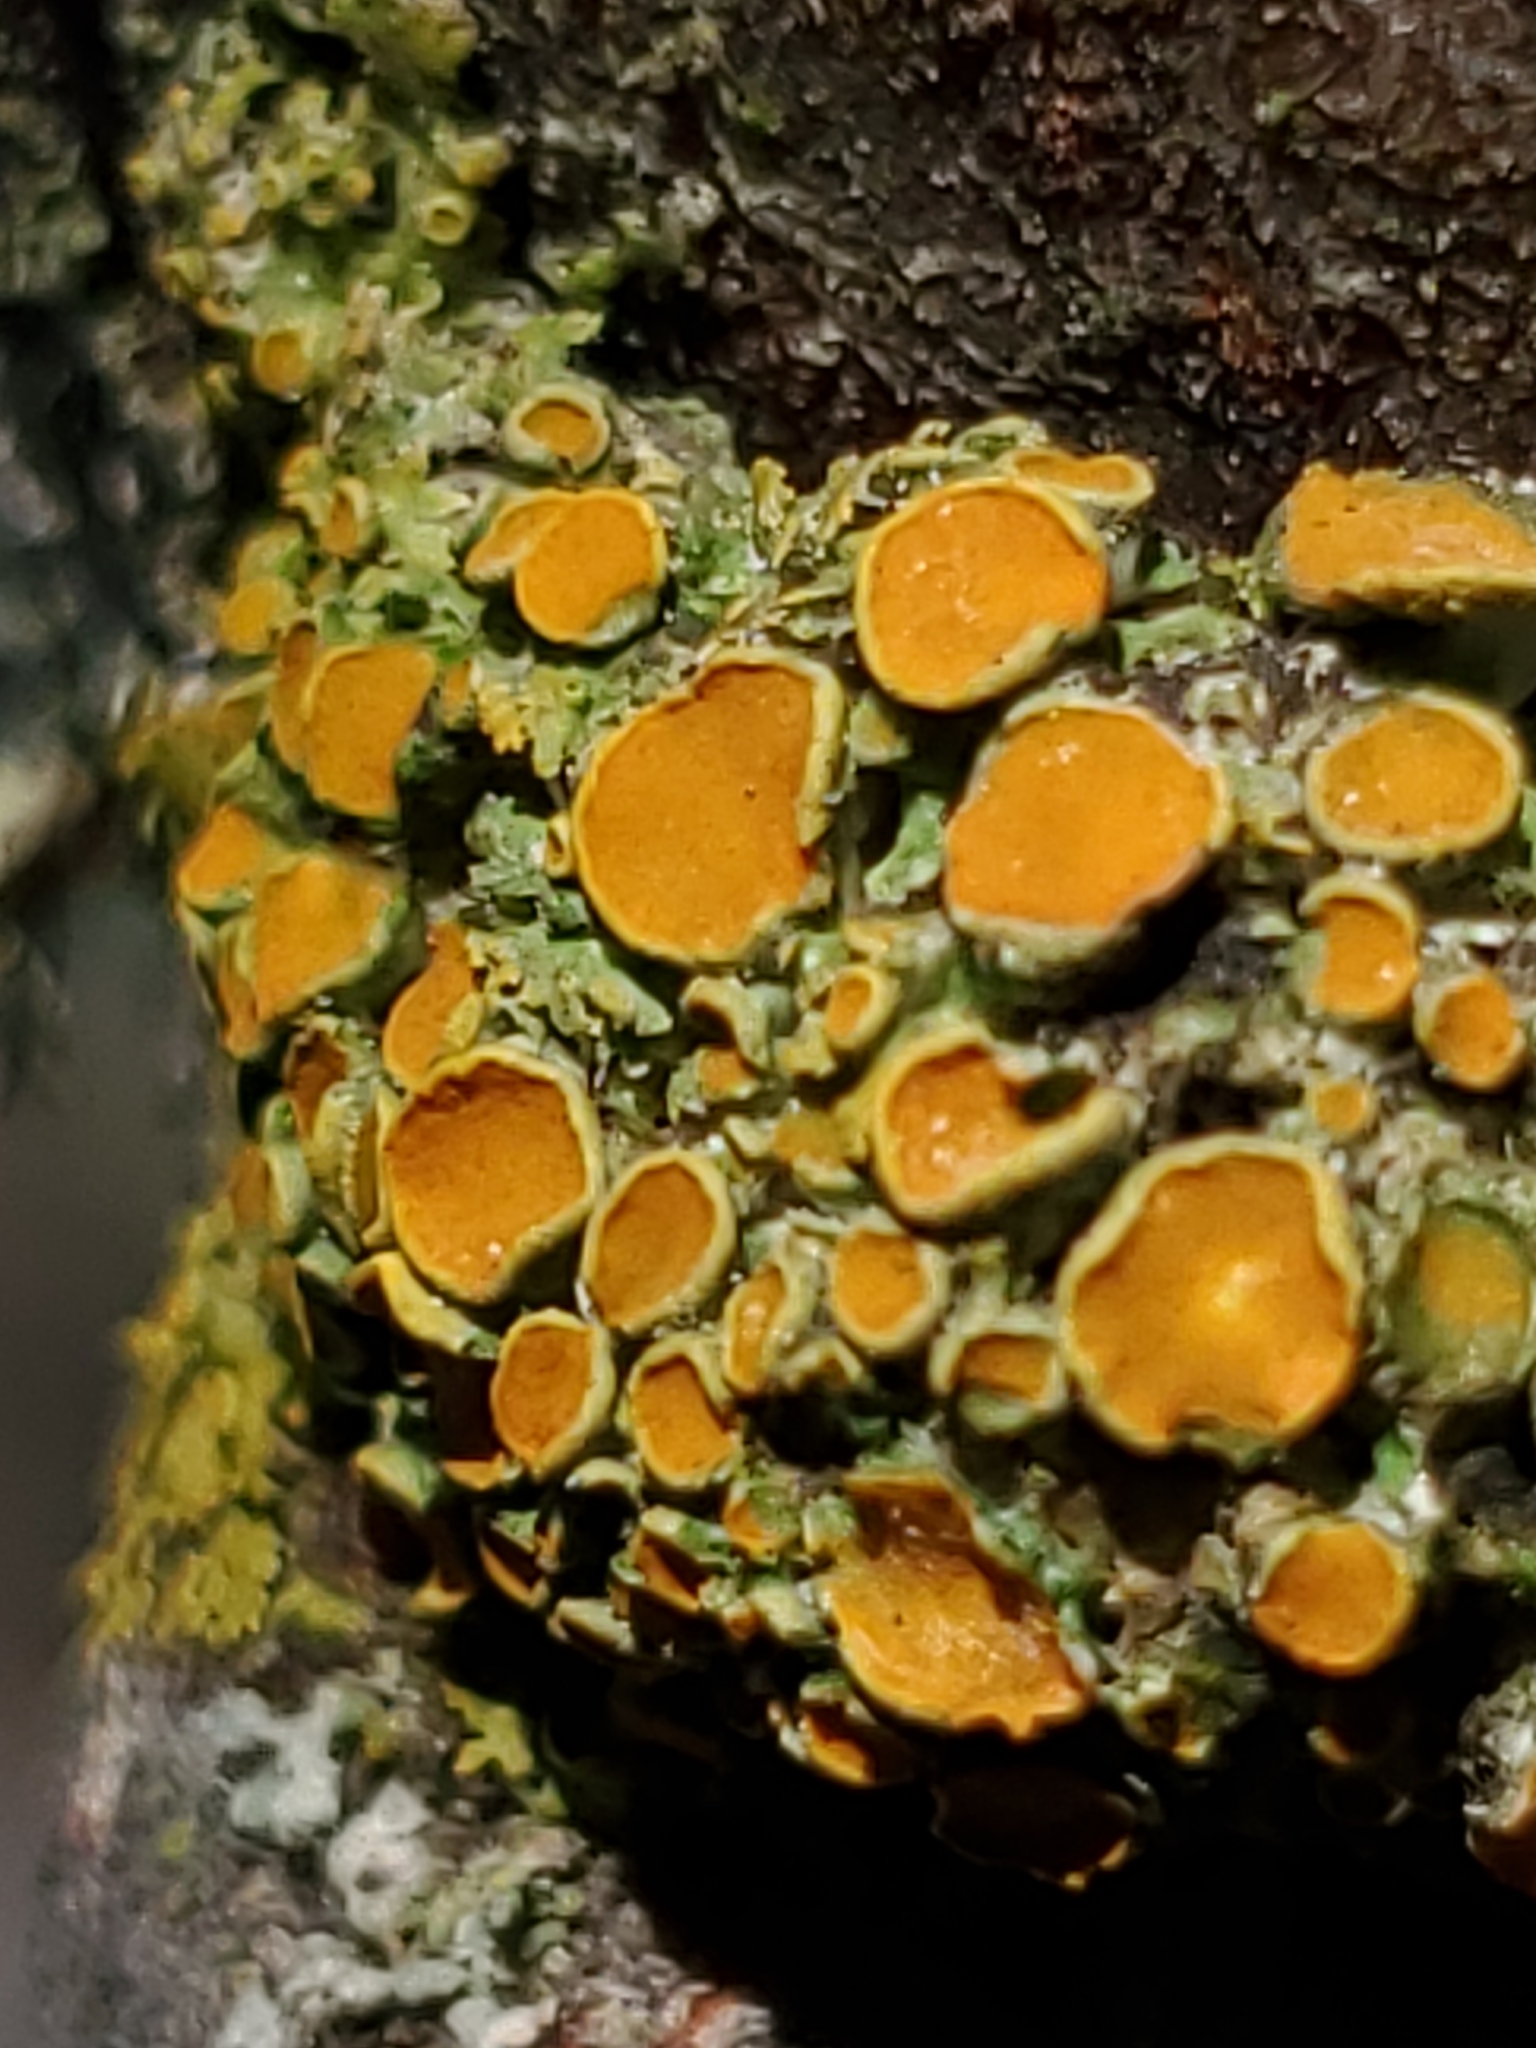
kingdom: Fungi
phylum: Ascomycota
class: Lecanoromycetes
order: Lecanorales
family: Lecanoraceae
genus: Omphalodina
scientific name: Omphalodina chrysoleuca
